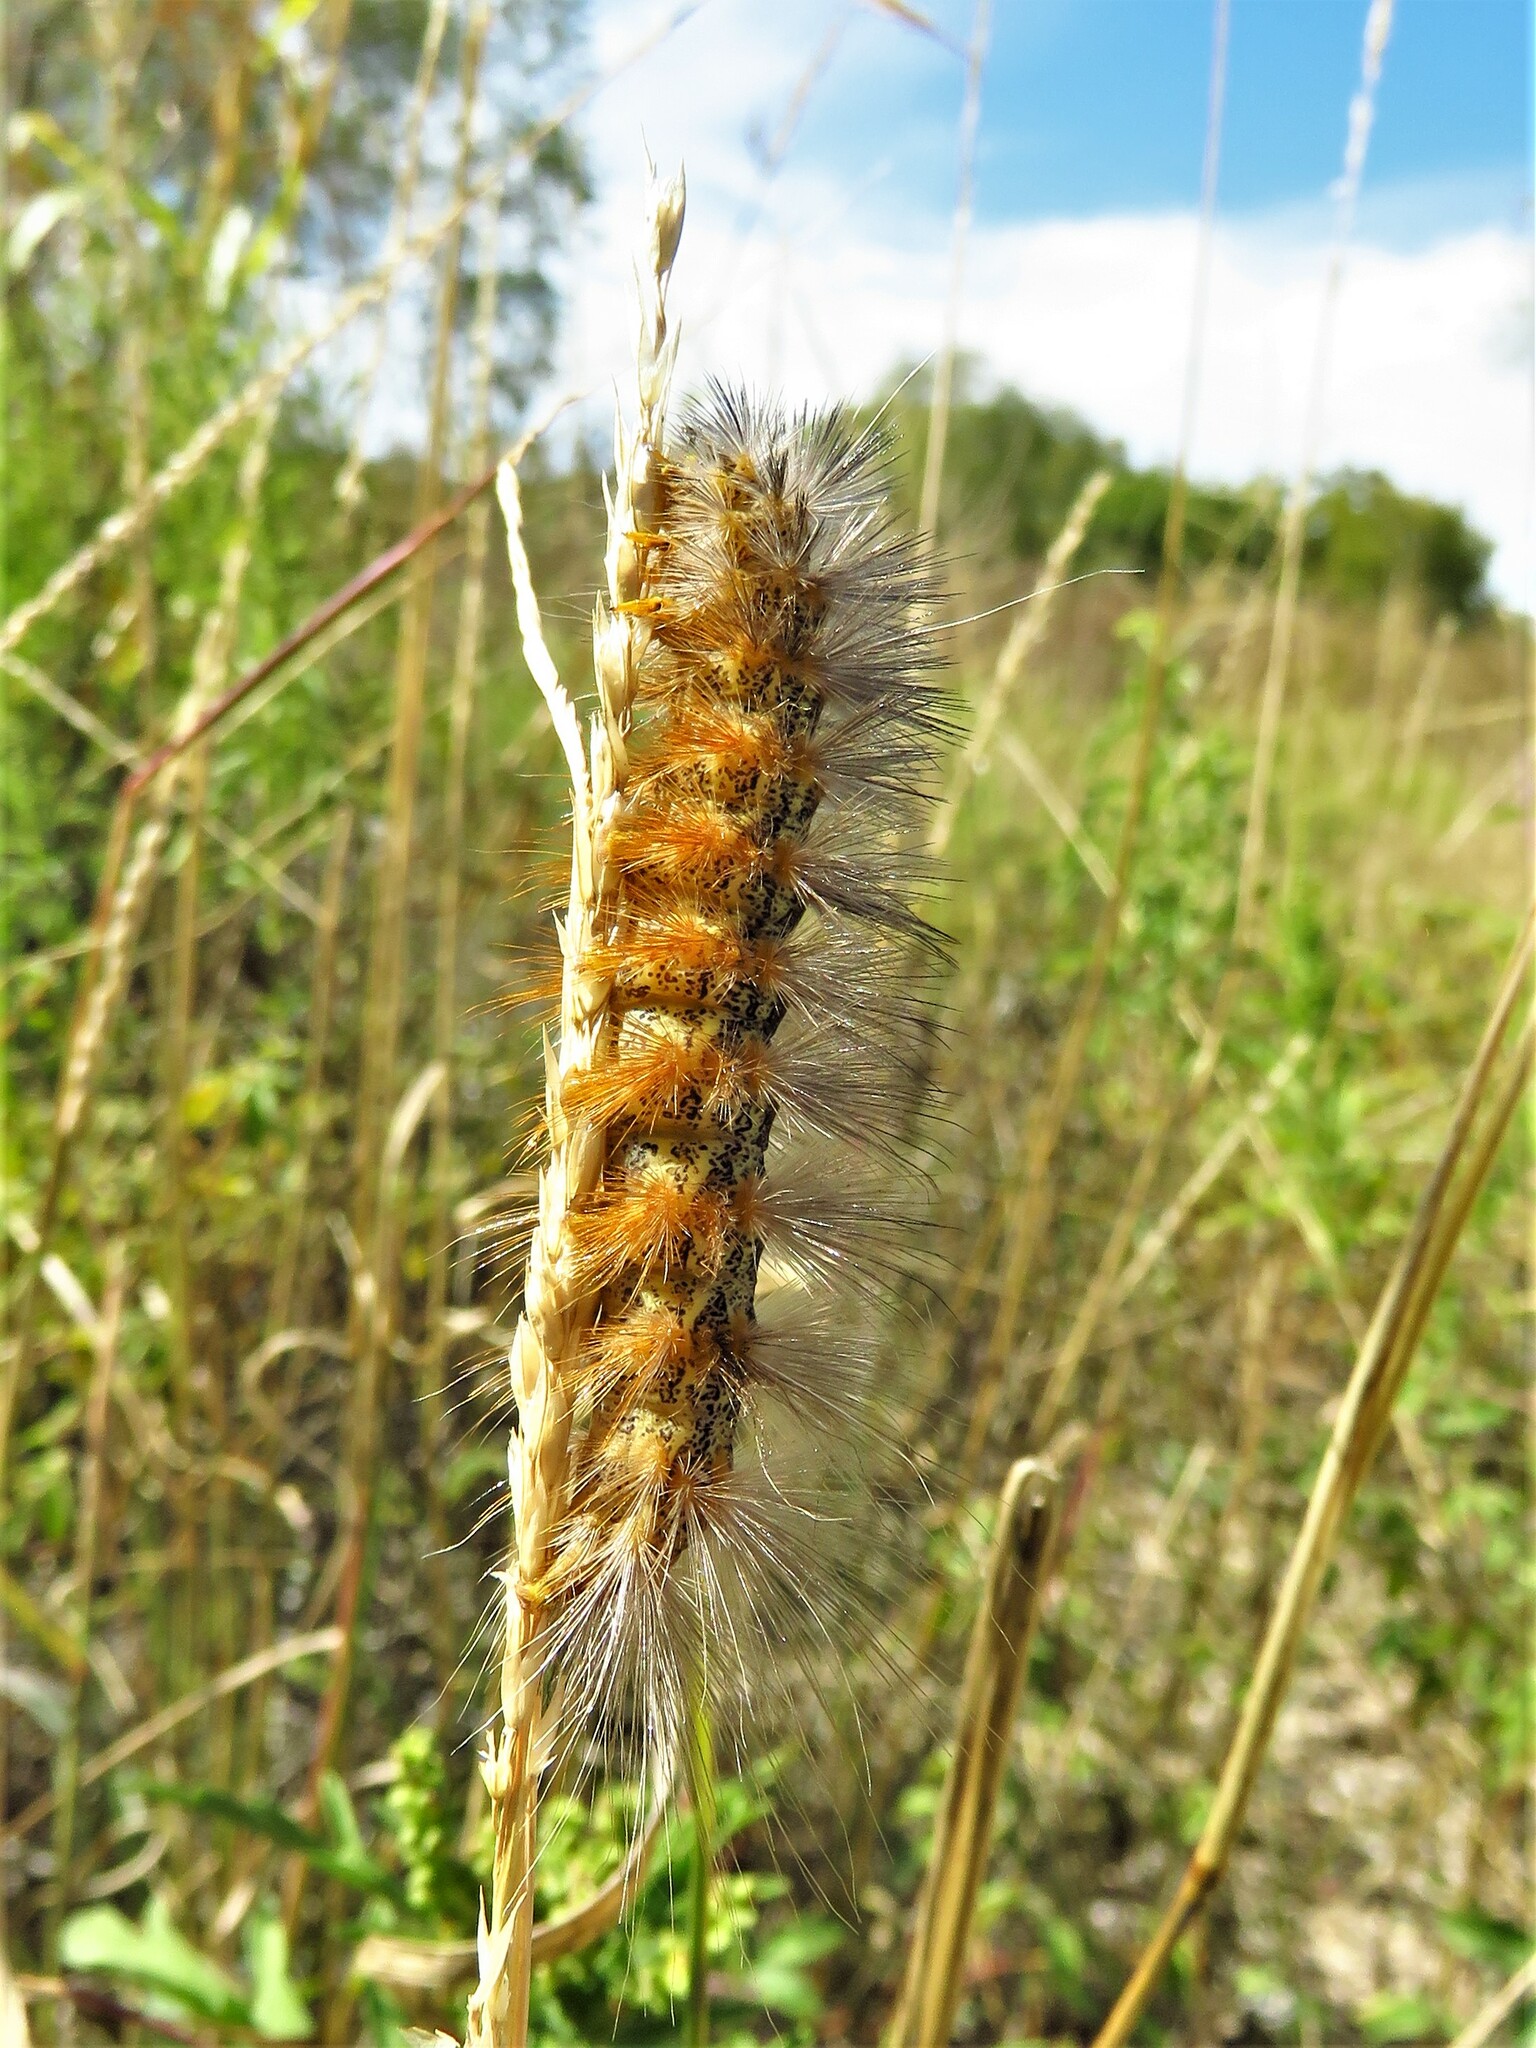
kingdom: Animalia
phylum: Arthropoda
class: Insecta
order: Lepidoptera
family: Erebidae
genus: Estigmene
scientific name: Estigmene acrea
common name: Salt marsh moth
